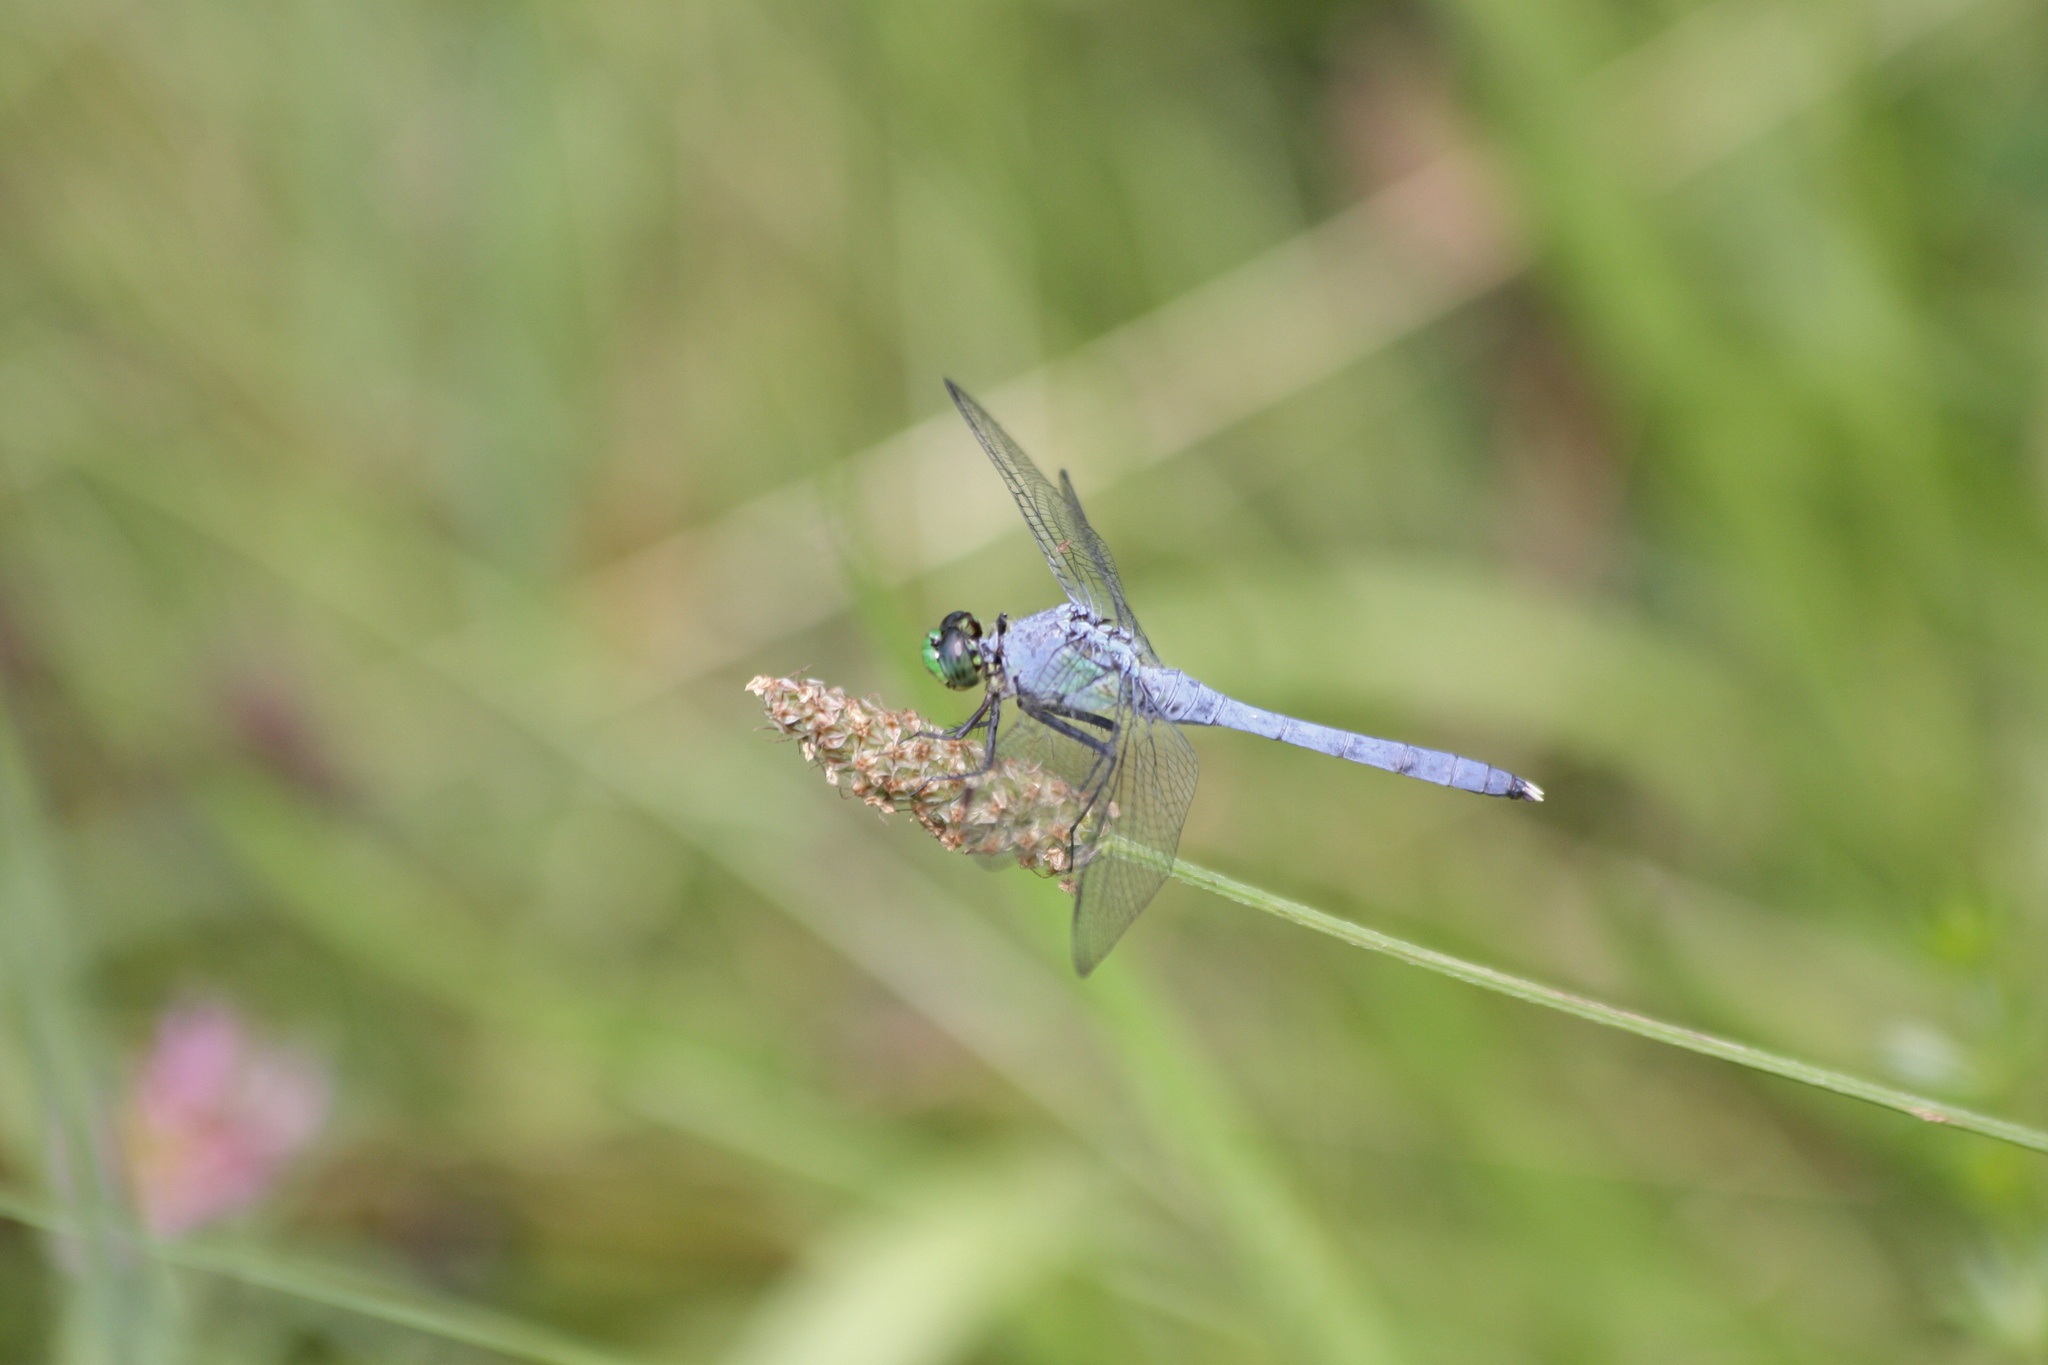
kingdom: Animalia
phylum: Arthropoda
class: Insecta
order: Odonata
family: Libellulidae
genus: Erythemis
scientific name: Erythemis simplicicollis
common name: Eastern pondhawk
